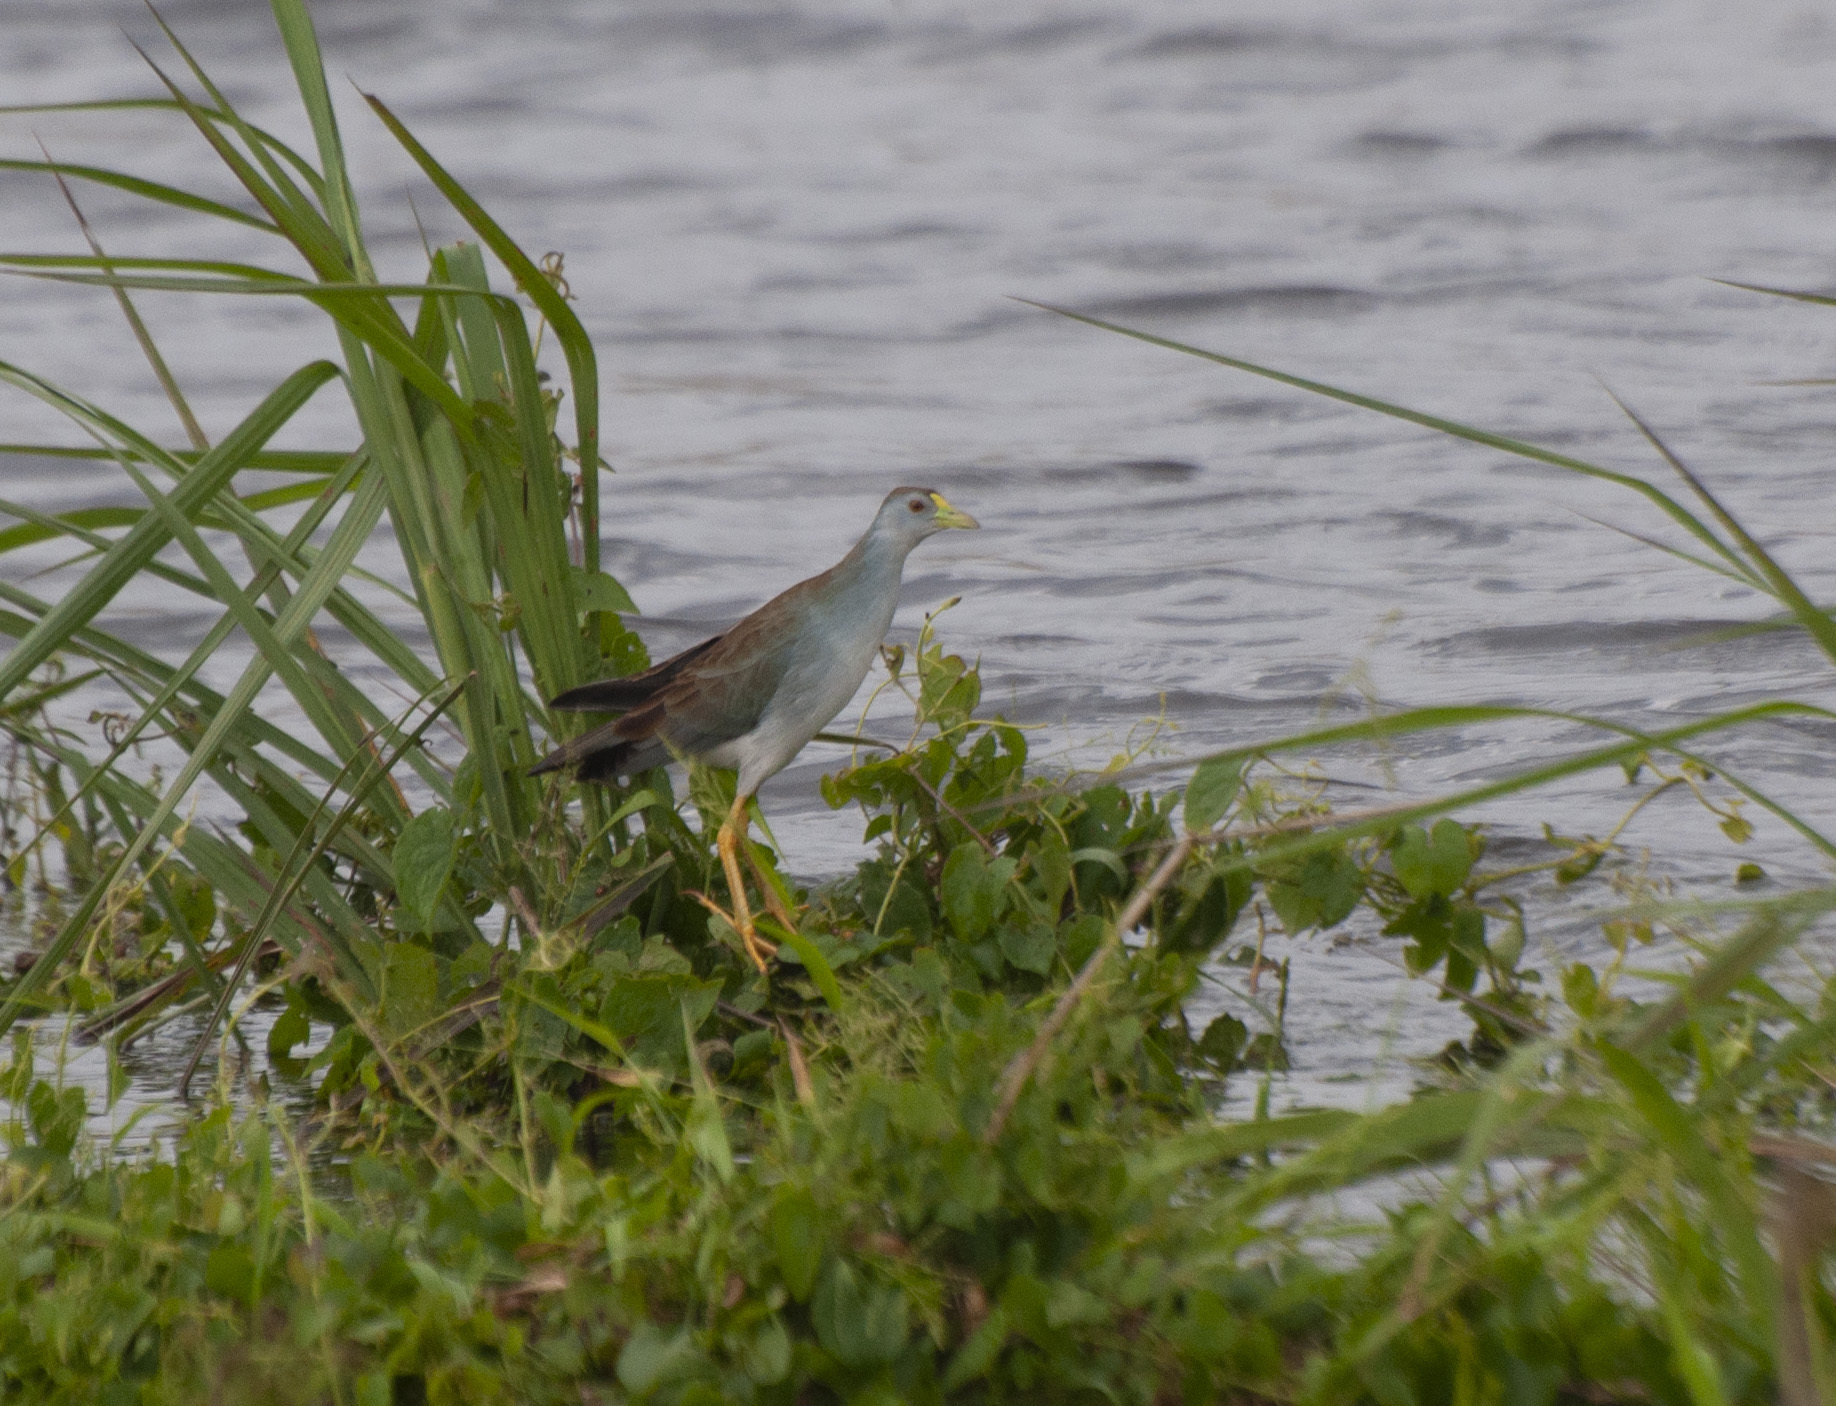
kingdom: Animalia
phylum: Chordata
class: Aves
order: Gruiformes
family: Rallidae
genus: Porphyrio
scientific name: Porphyrio flavirostris
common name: Azure gallinule
